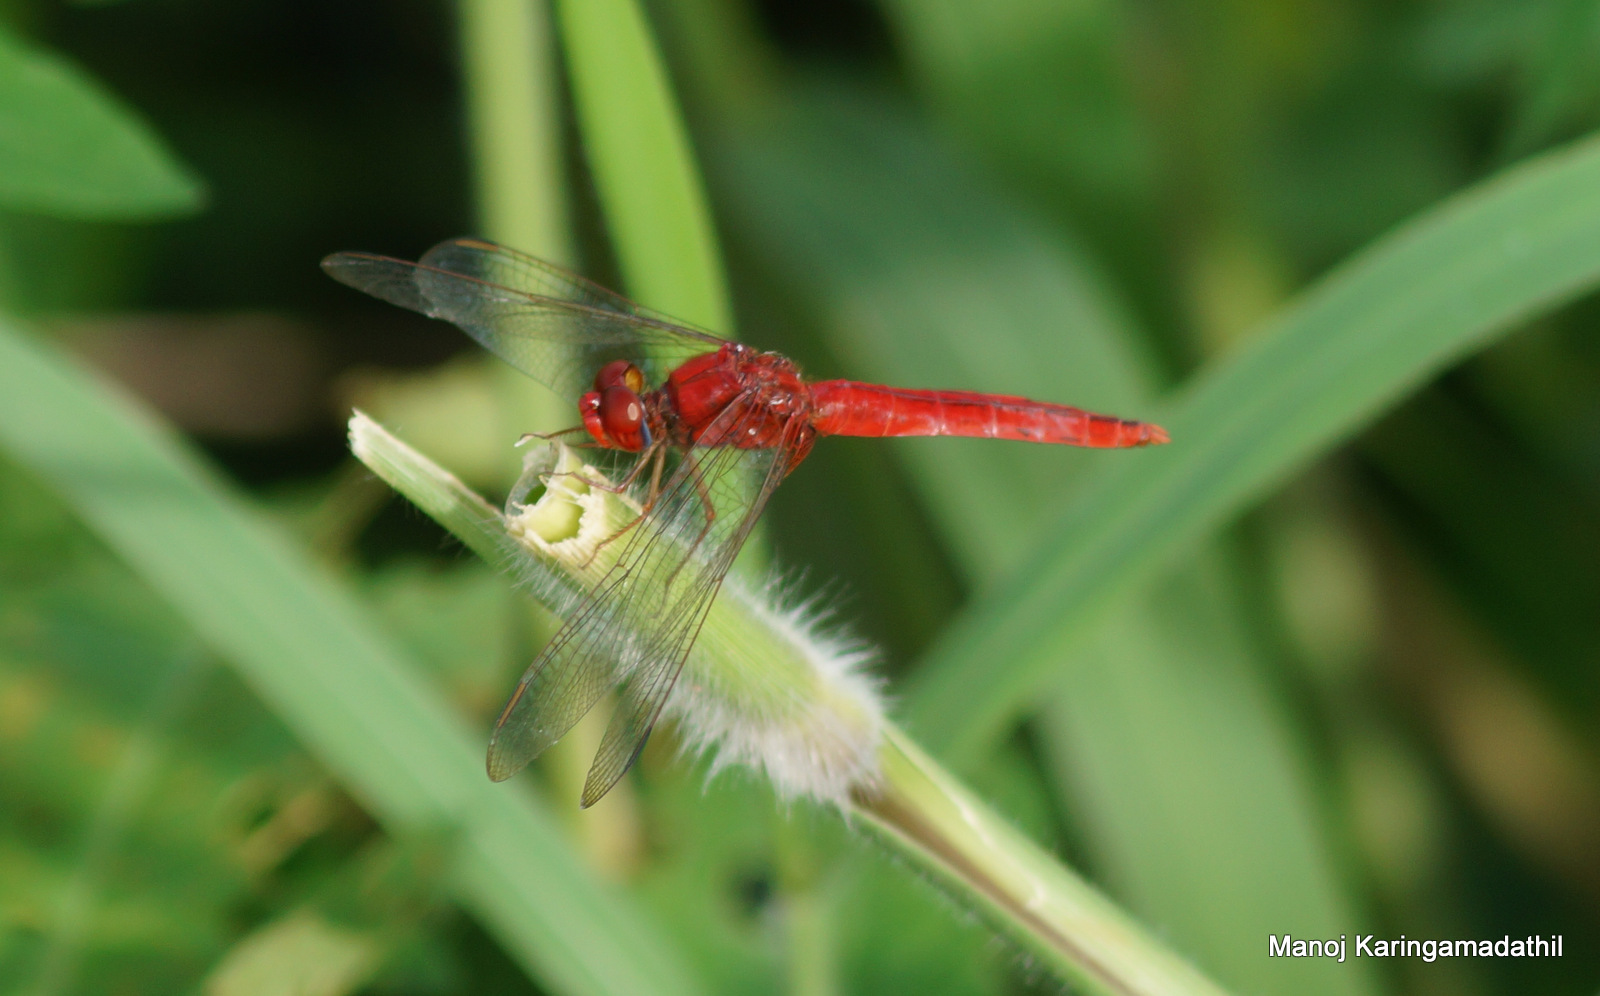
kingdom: Animalia
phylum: Arthropoda
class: Insecta
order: Odonata
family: Libellulidae
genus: Crocothemis
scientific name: Crocothemis servilia
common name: Scarlet skimmer
